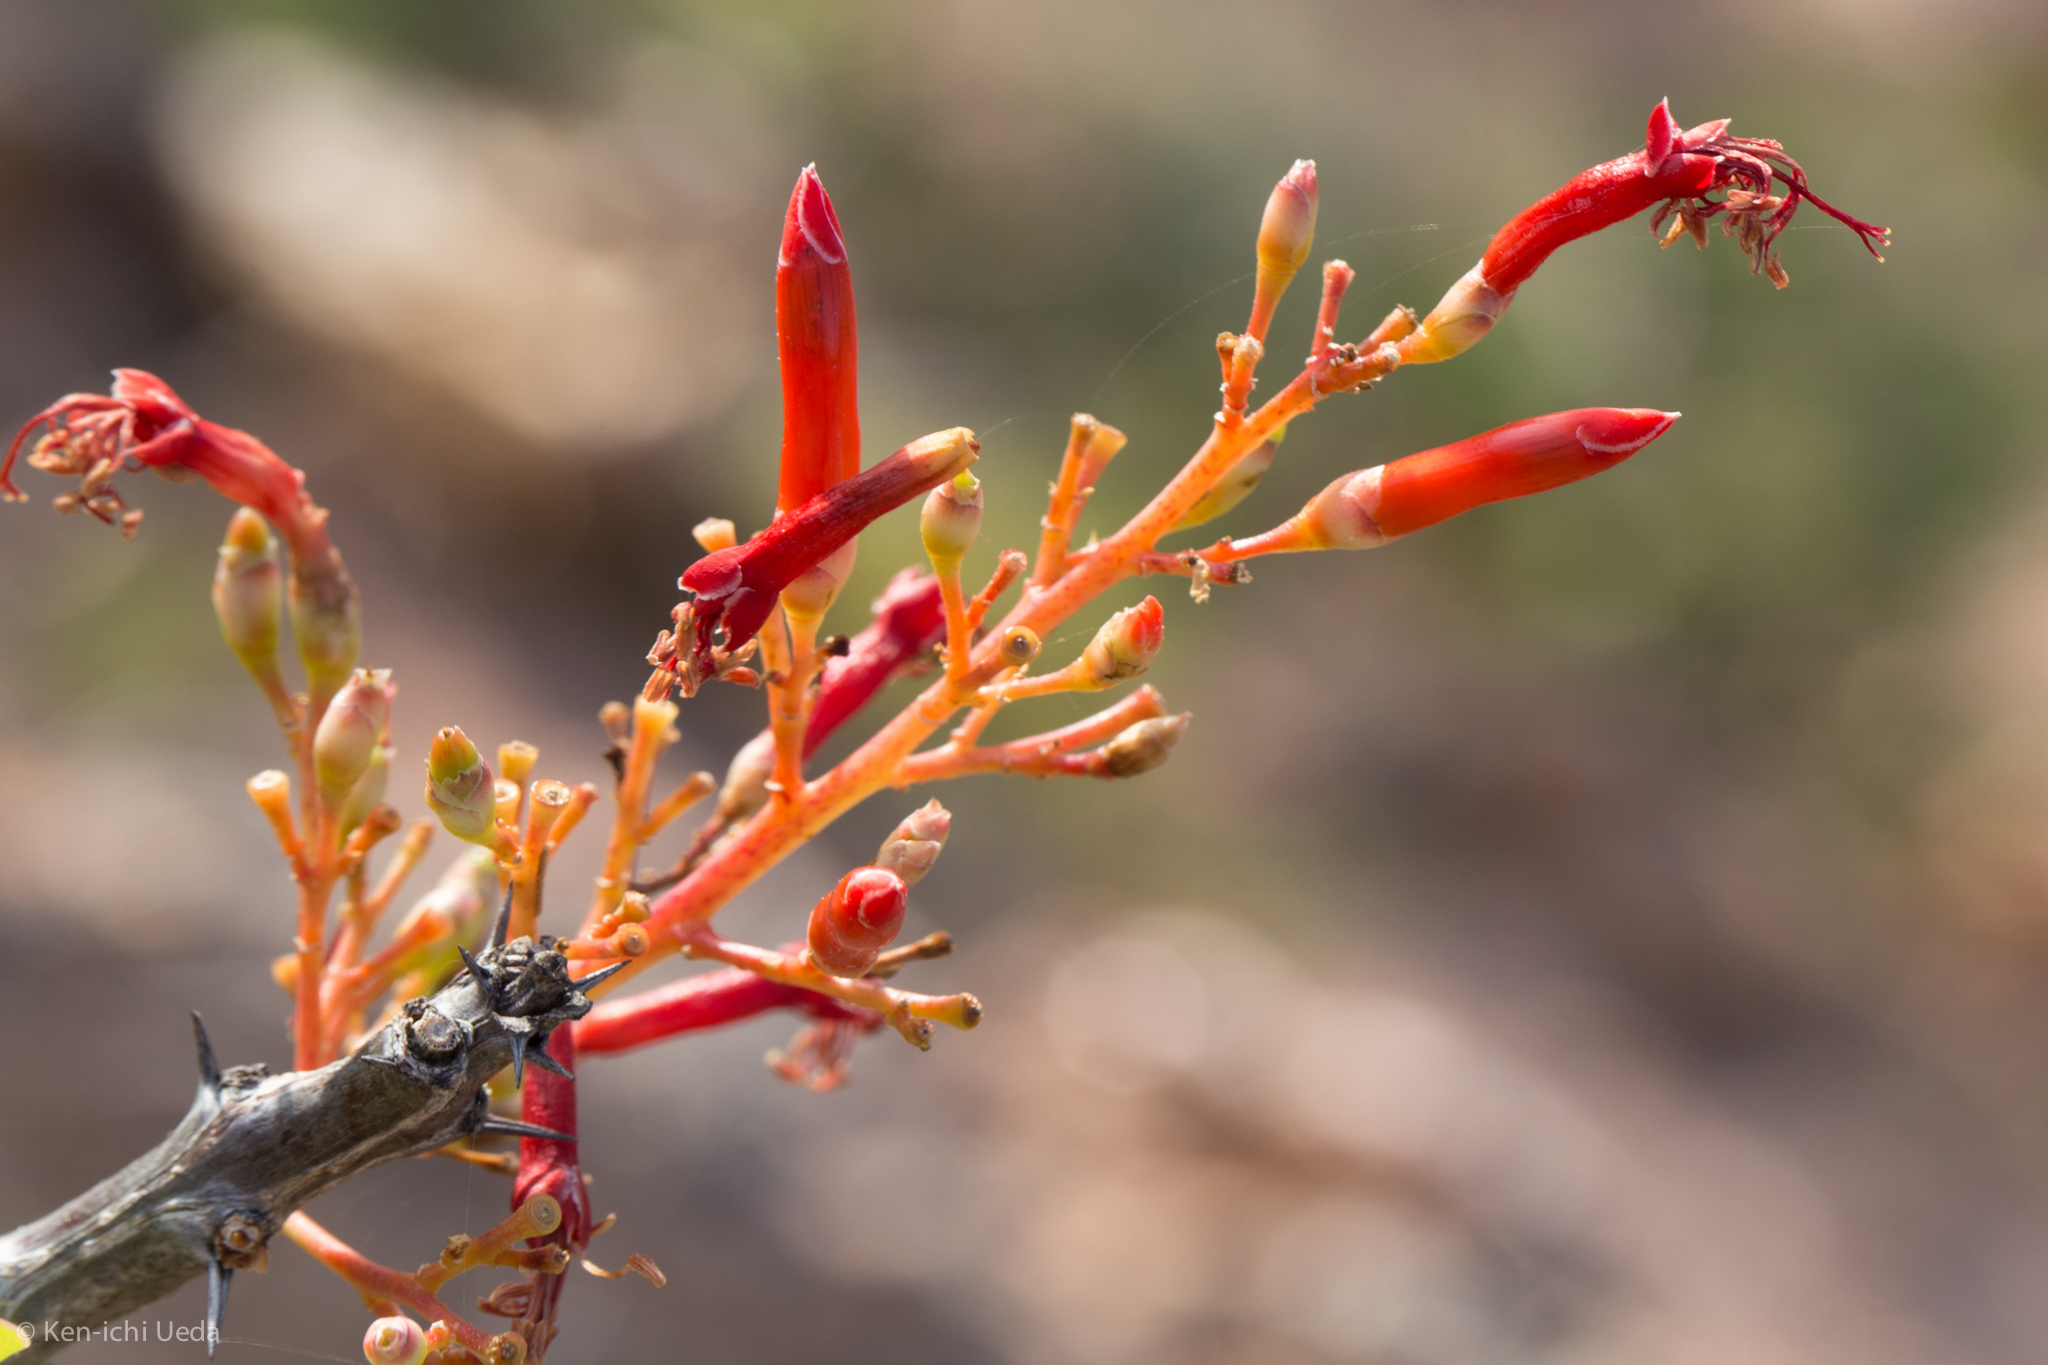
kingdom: Plantae
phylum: Tracheophyta
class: Magnoliopsida
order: Ericales
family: Fouquieriaceae
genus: Fouquieria
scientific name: Fouquieria diguetii
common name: Adam's tree
